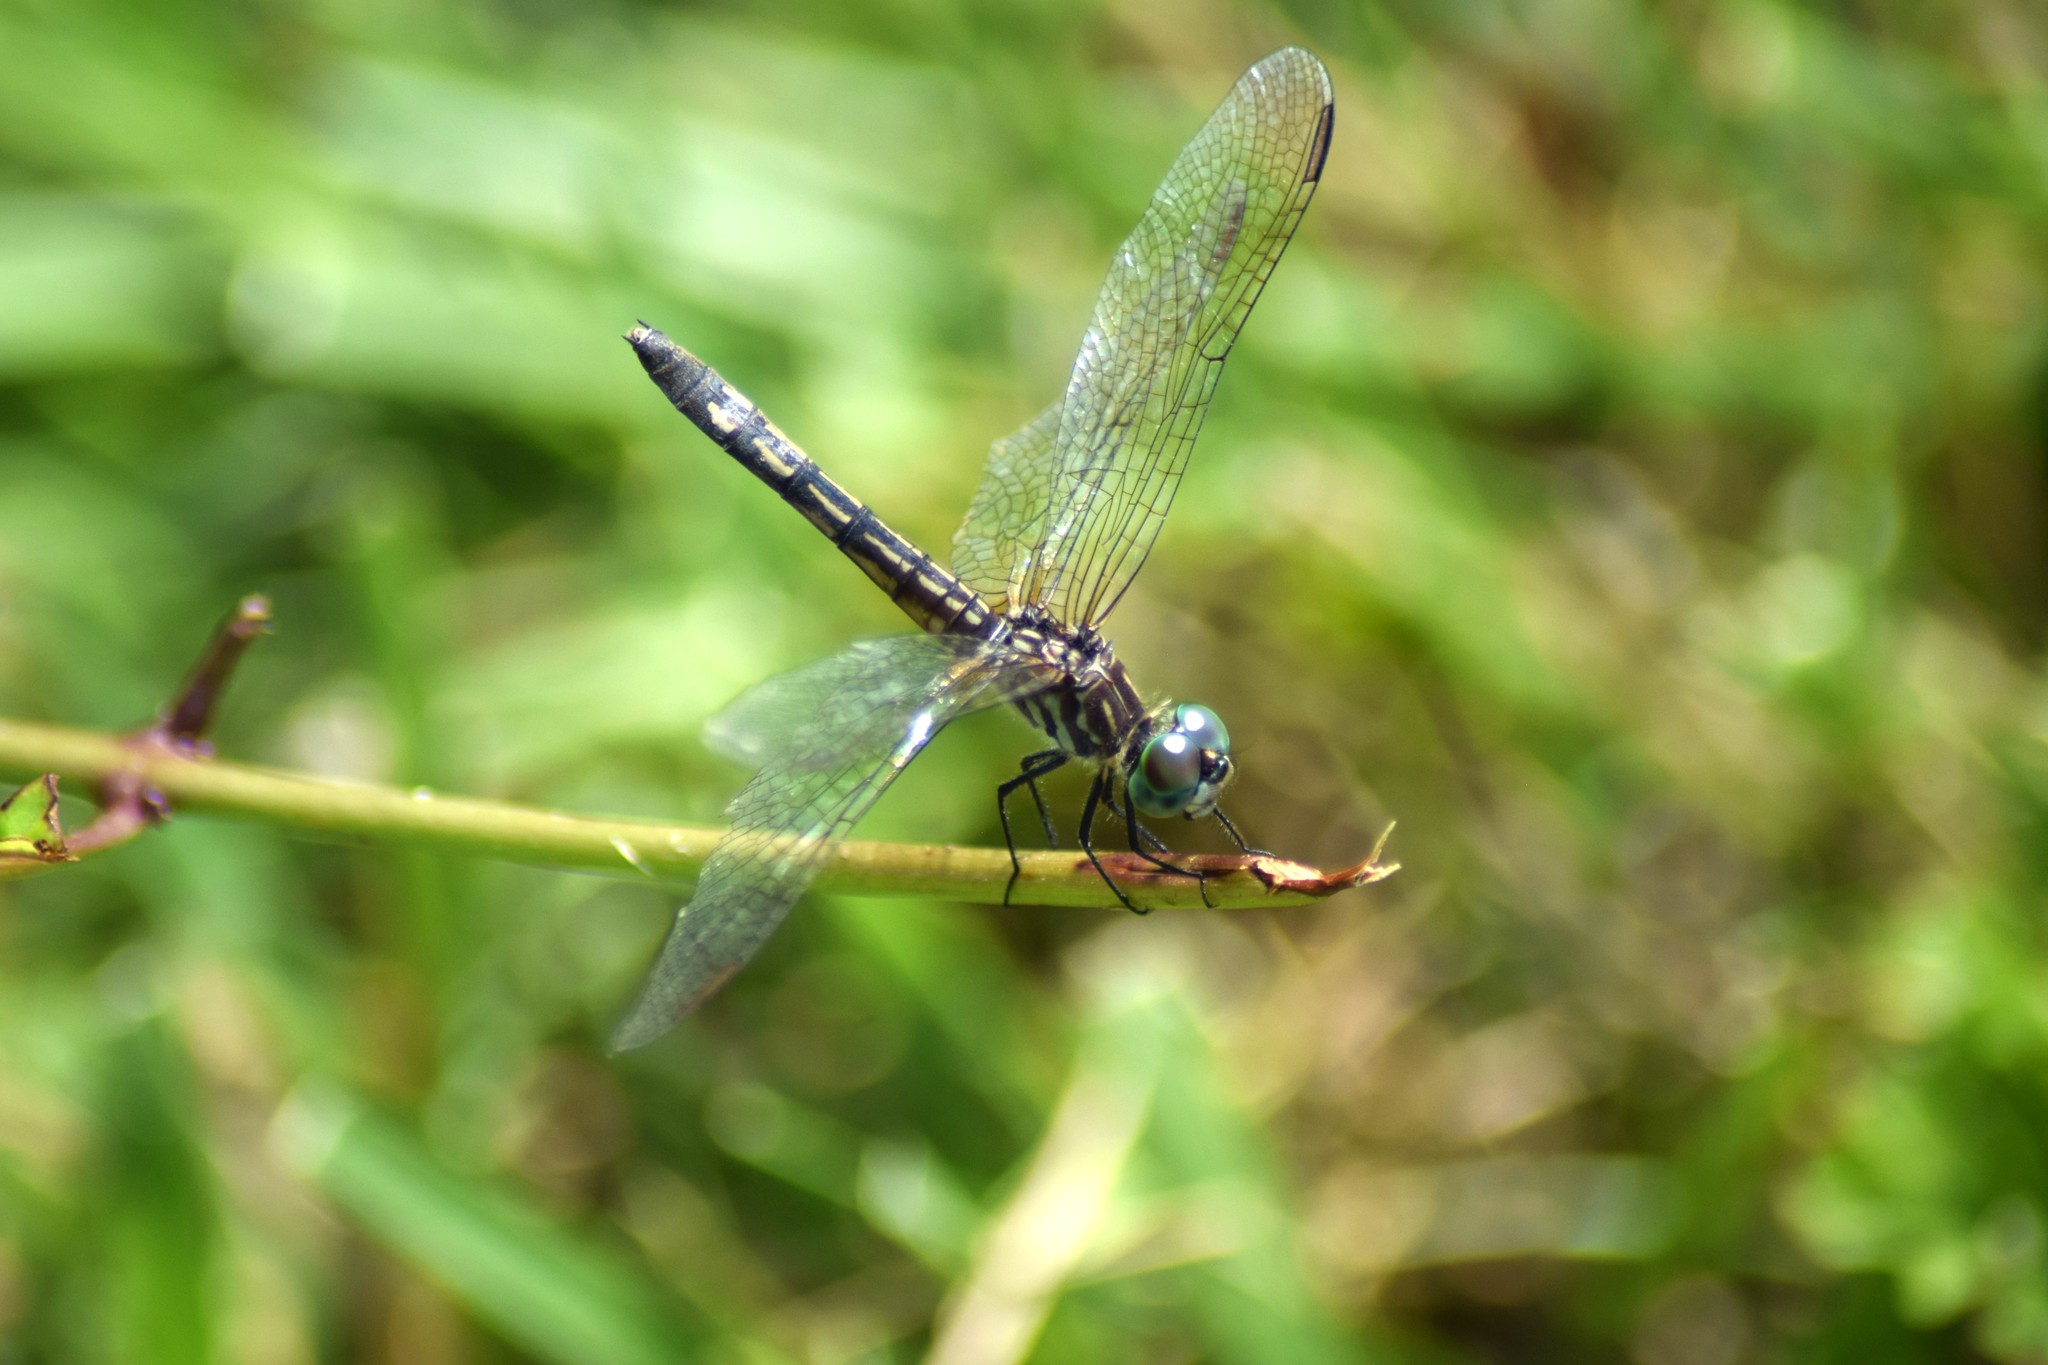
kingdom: Animalia
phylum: Arthropoda
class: Insecta
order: Odonata
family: Libellulidae
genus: Pachydiplax
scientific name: Pachydiplax longipennis
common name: Blue dasher
